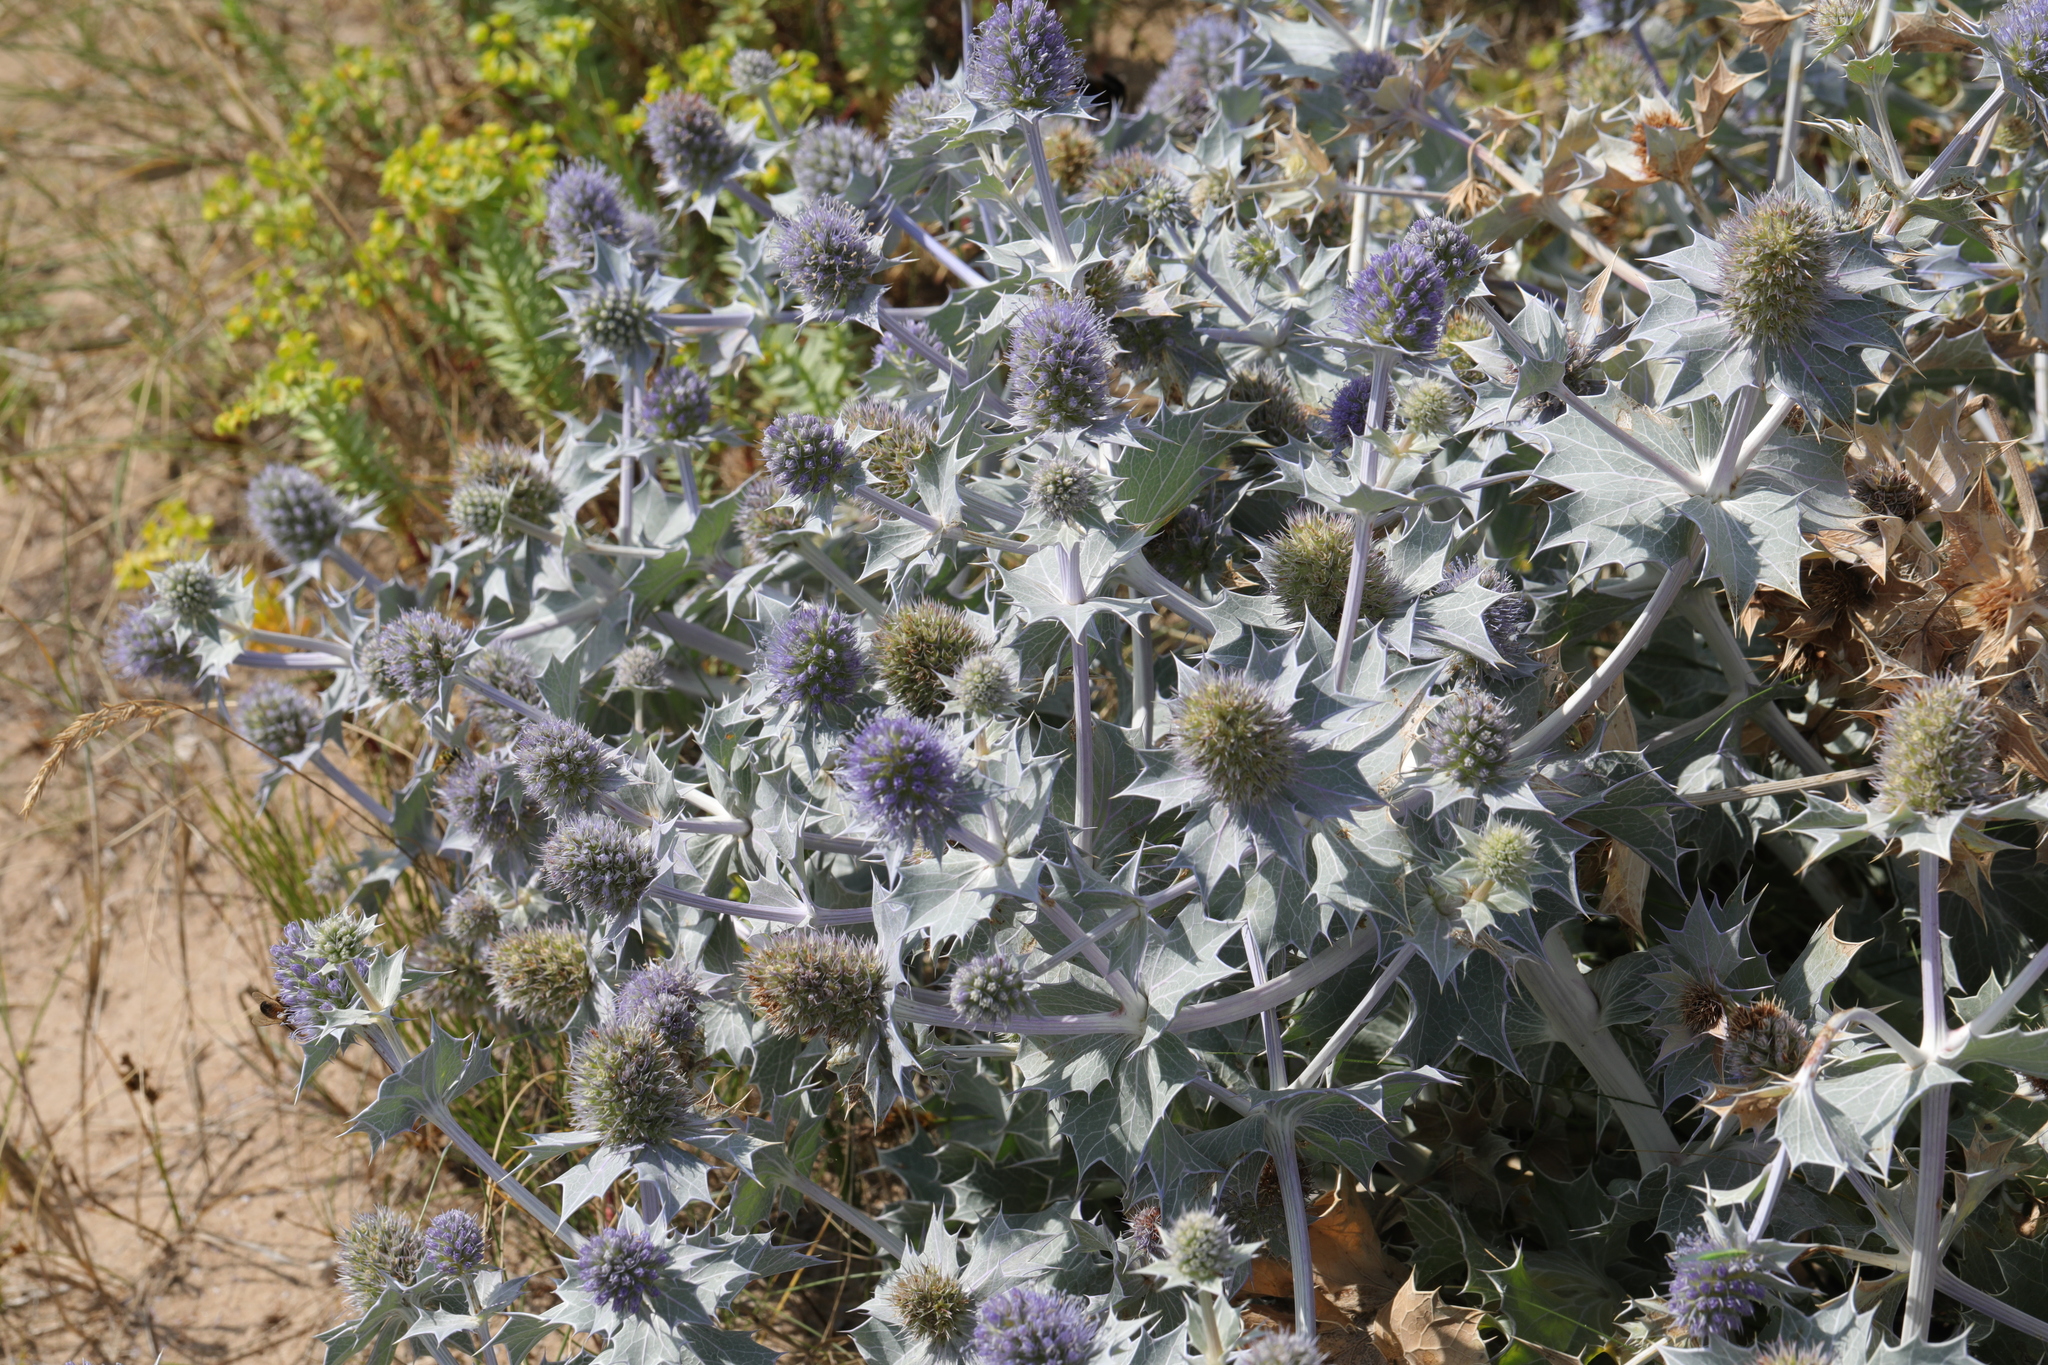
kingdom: Plantae
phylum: Tracheophyta
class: Magnoliopsida
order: Apiales
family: Apiaceae
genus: Eryngium
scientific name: Eryngium maritimum
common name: Sea-holly
